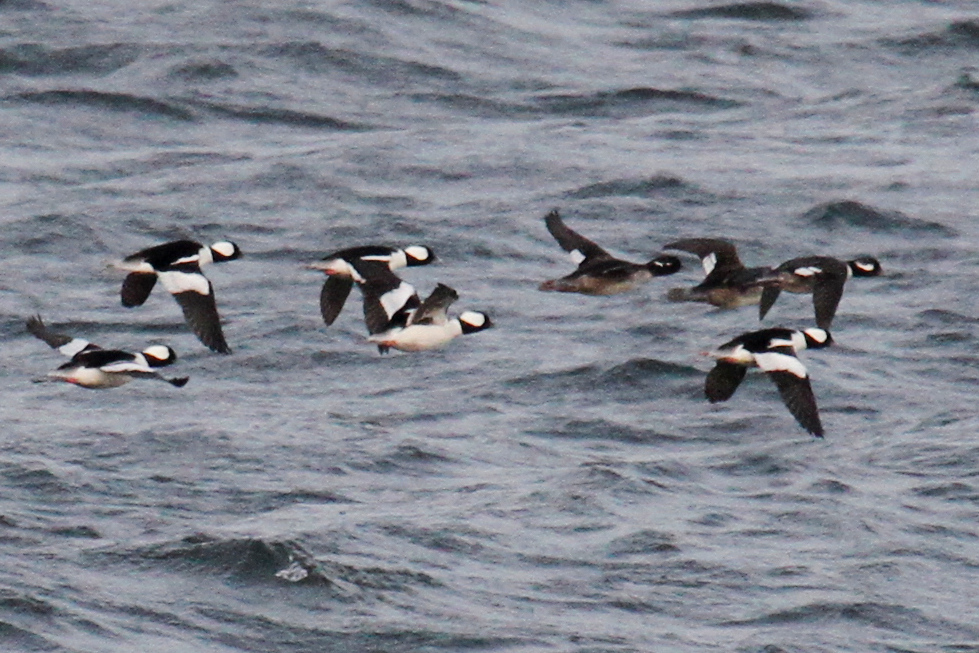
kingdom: Animalia
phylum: Chordata
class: Aves
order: Anseriformes
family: Anatidae
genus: Bucephala
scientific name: Bucephala albeola
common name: Bufflehead
